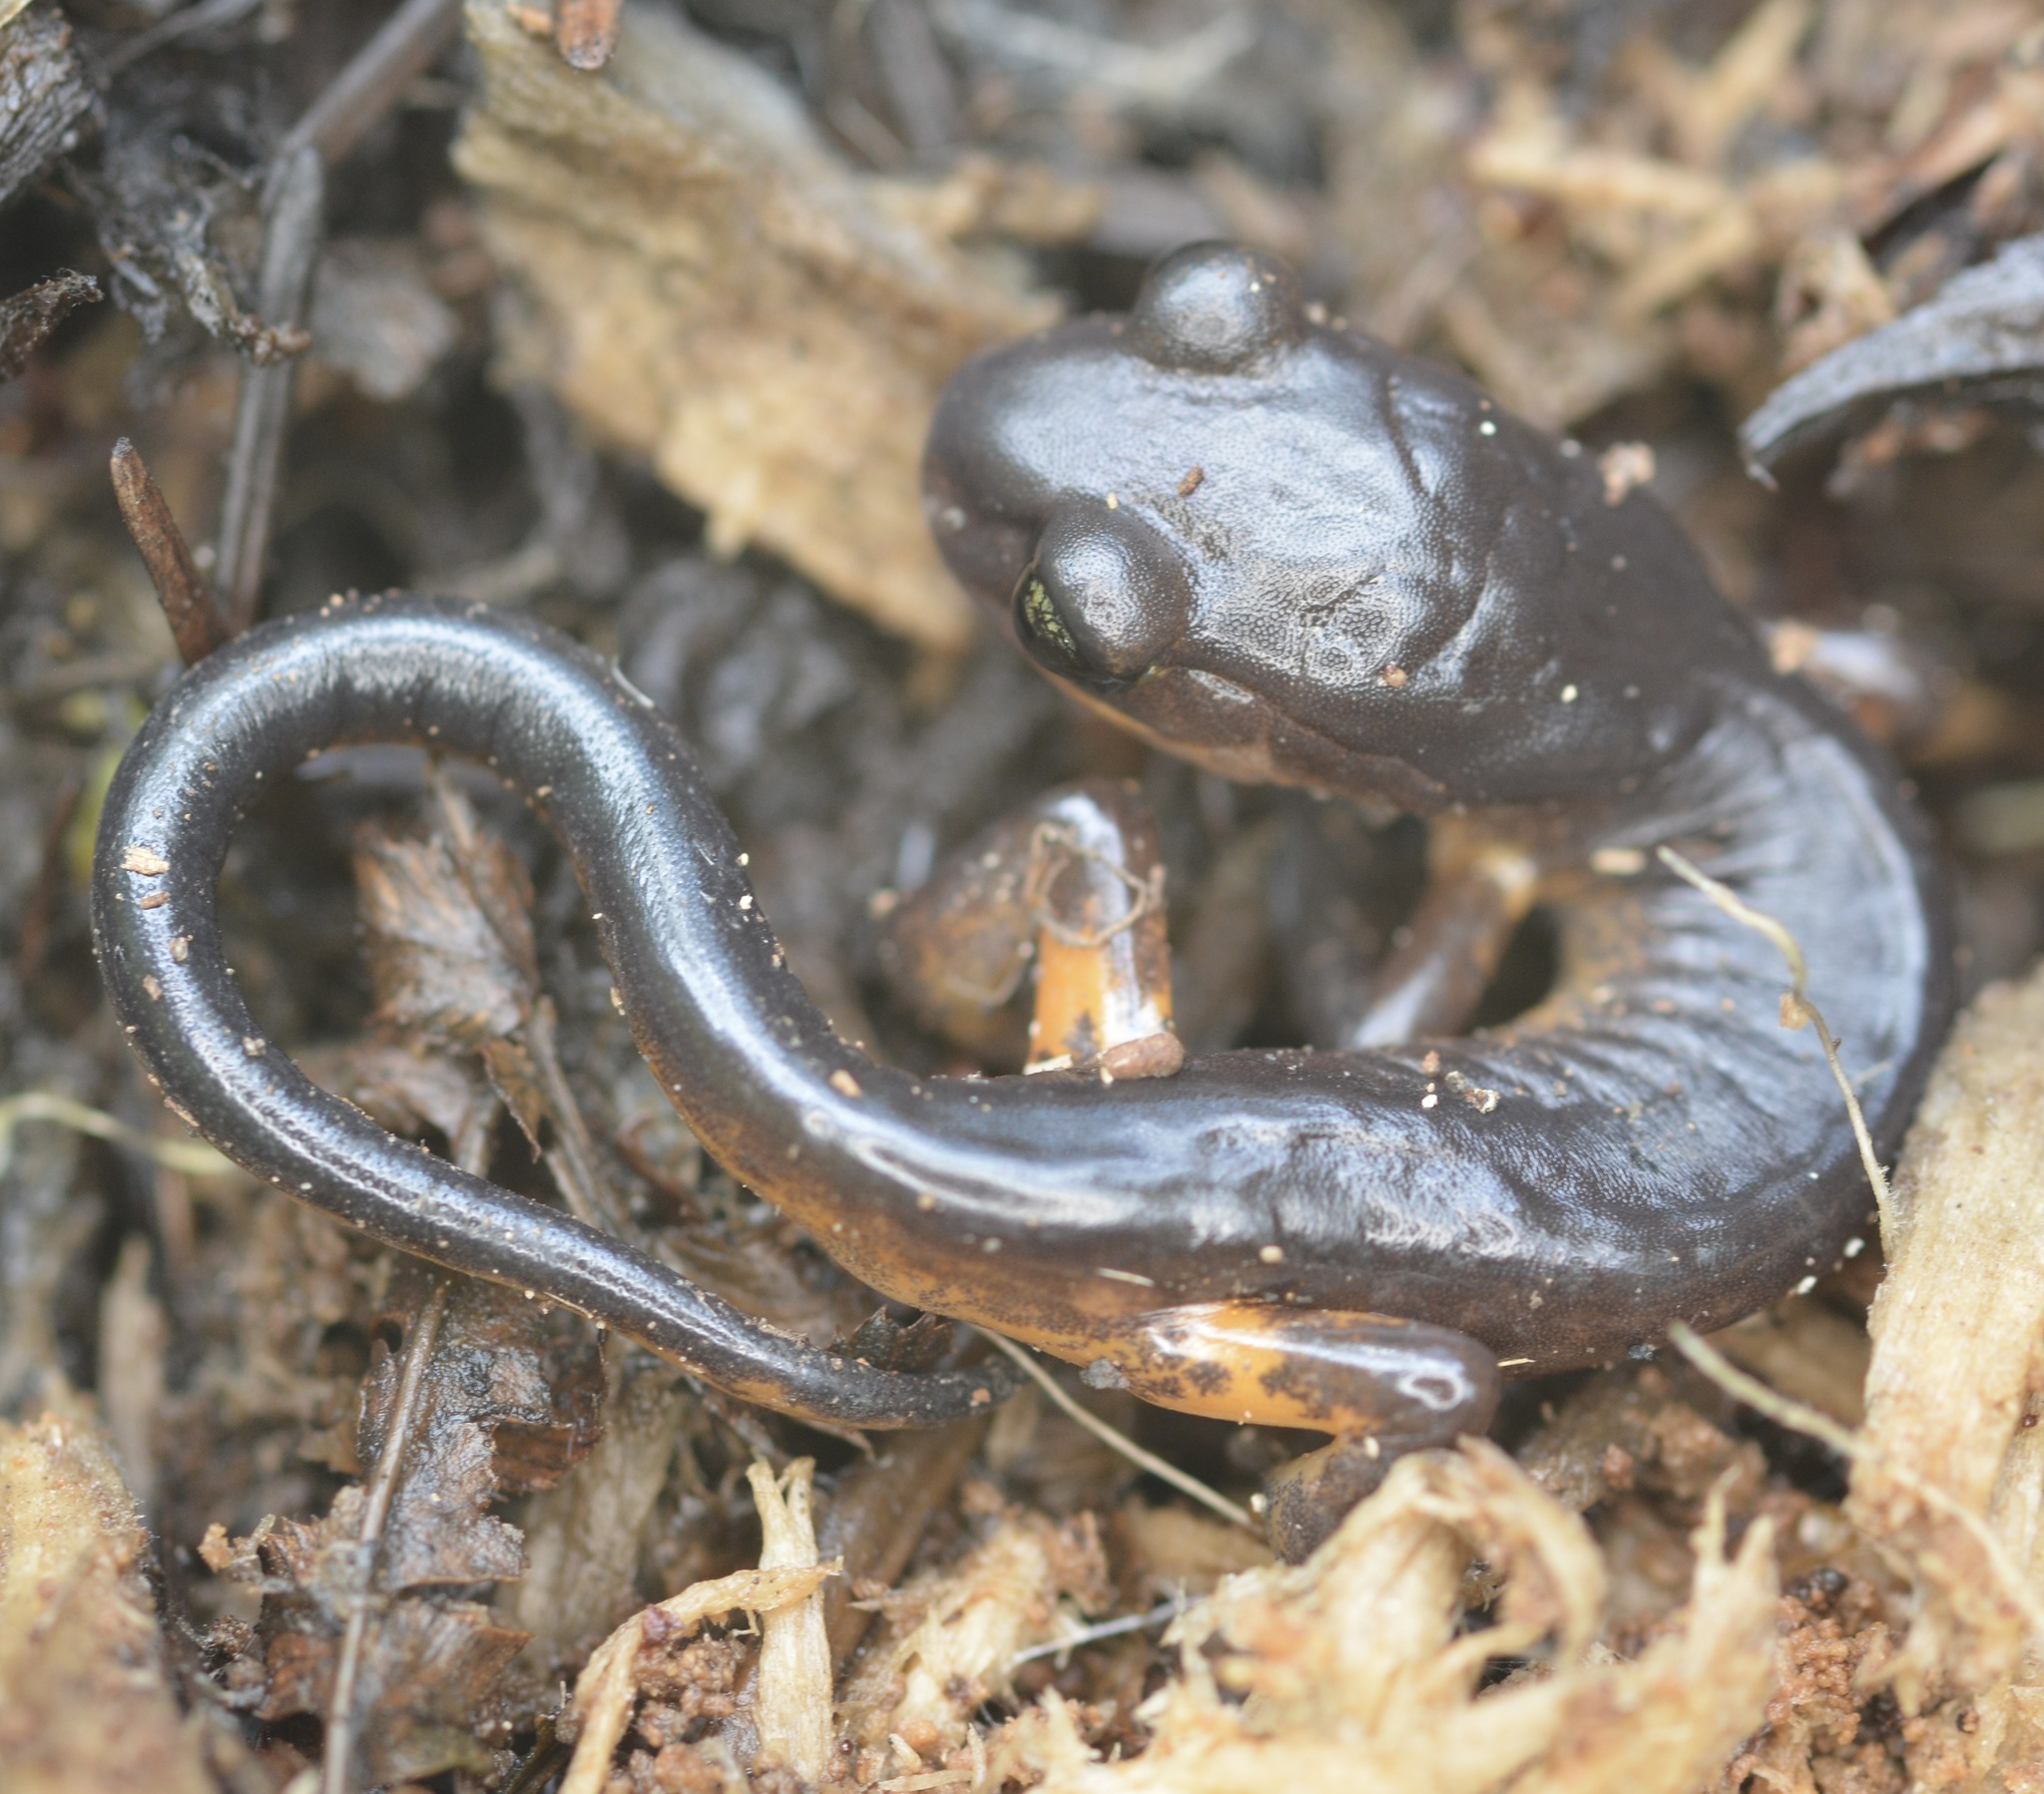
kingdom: Animalia
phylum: Chordata
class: Amphibia
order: Caudata
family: Plethodontidae
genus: Ensatina
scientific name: Ensatina eschscholtzii
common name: Ensatina
